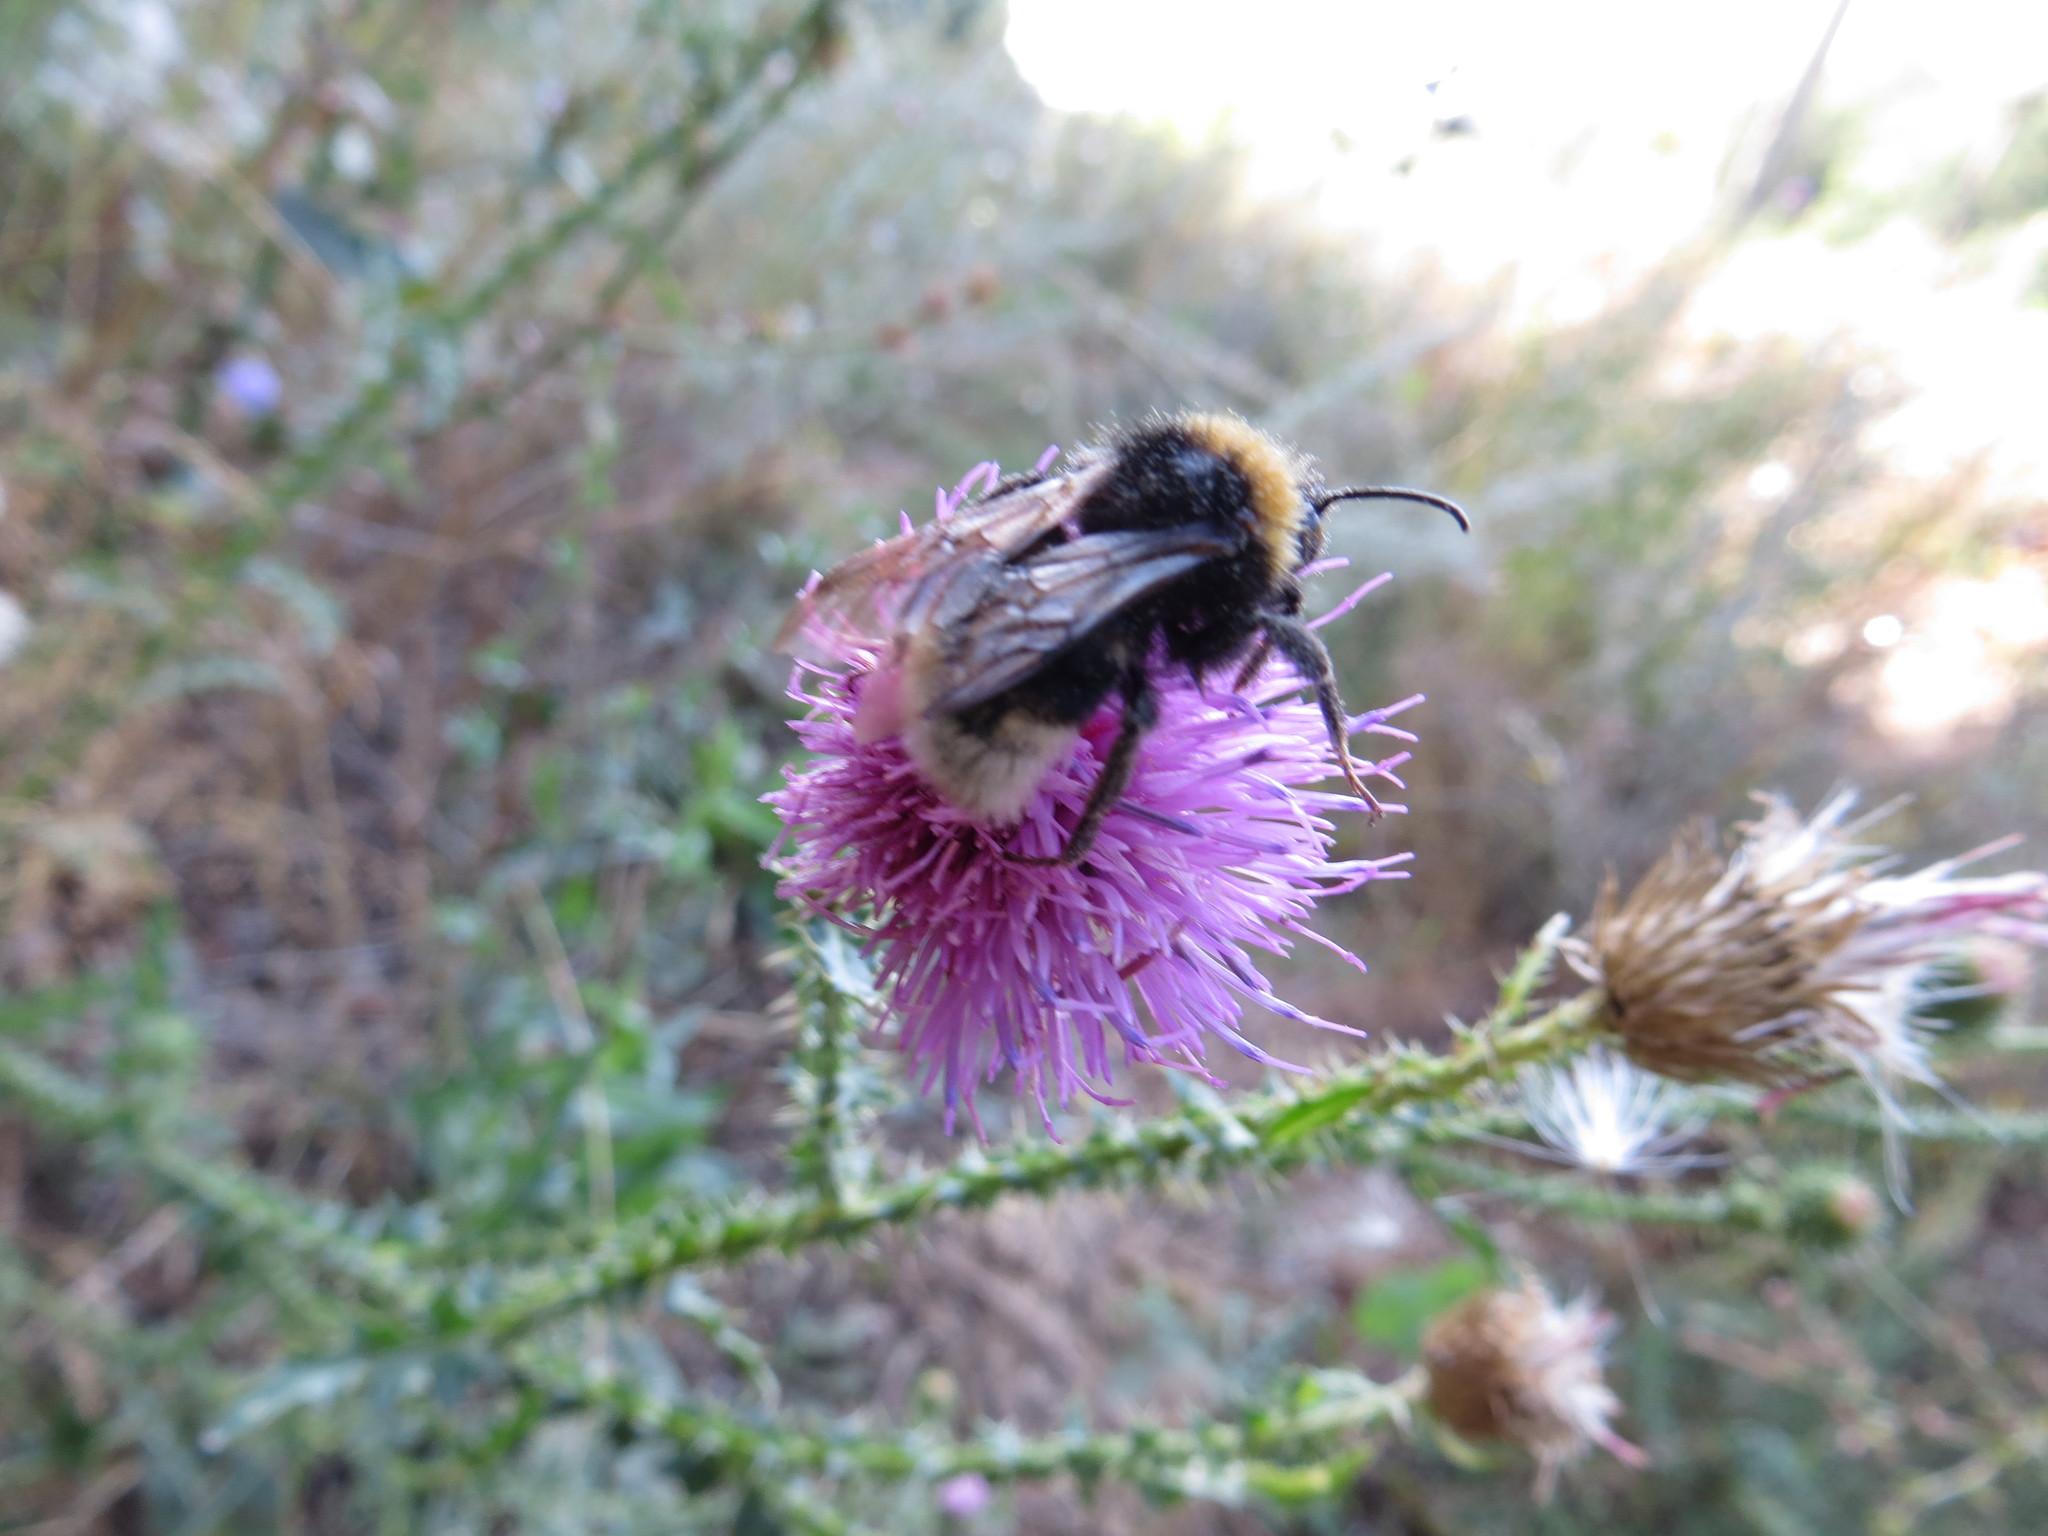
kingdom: Animalia
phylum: Arthropoda
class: Insecta
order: Hymenoptera
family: Apidae
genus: Bombus
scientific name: Bombus
